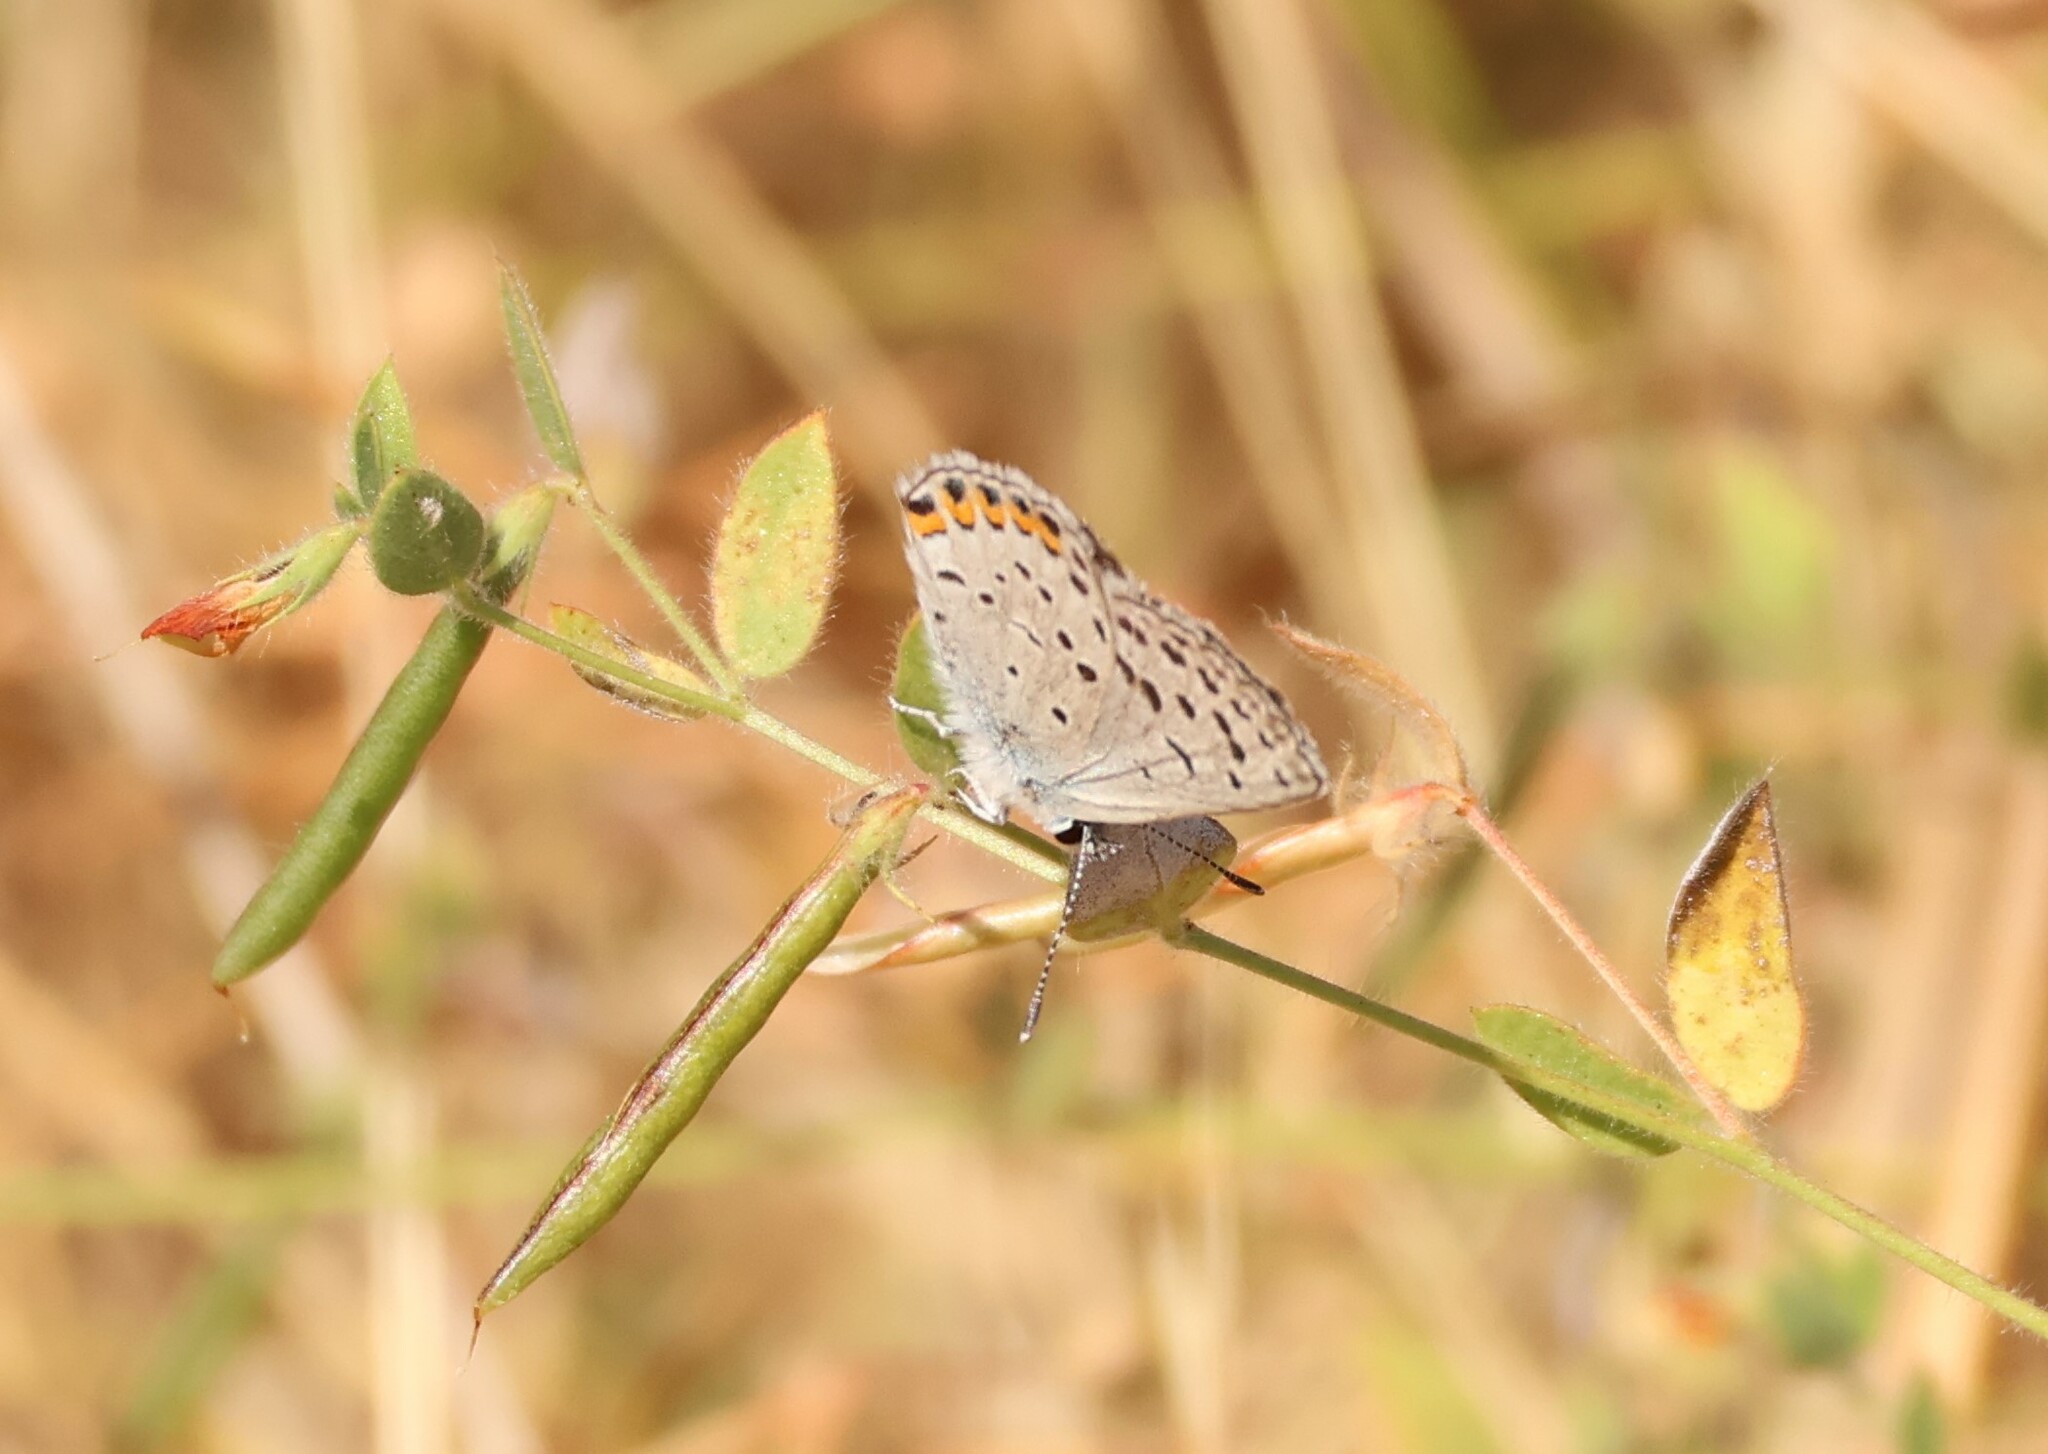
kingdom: Animalia
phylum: Arthropoda
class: Insecta
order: Lepidoptera
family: Lycaenidae
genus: Icaricia
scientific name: Icaricia acmon
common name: Acmon blue
